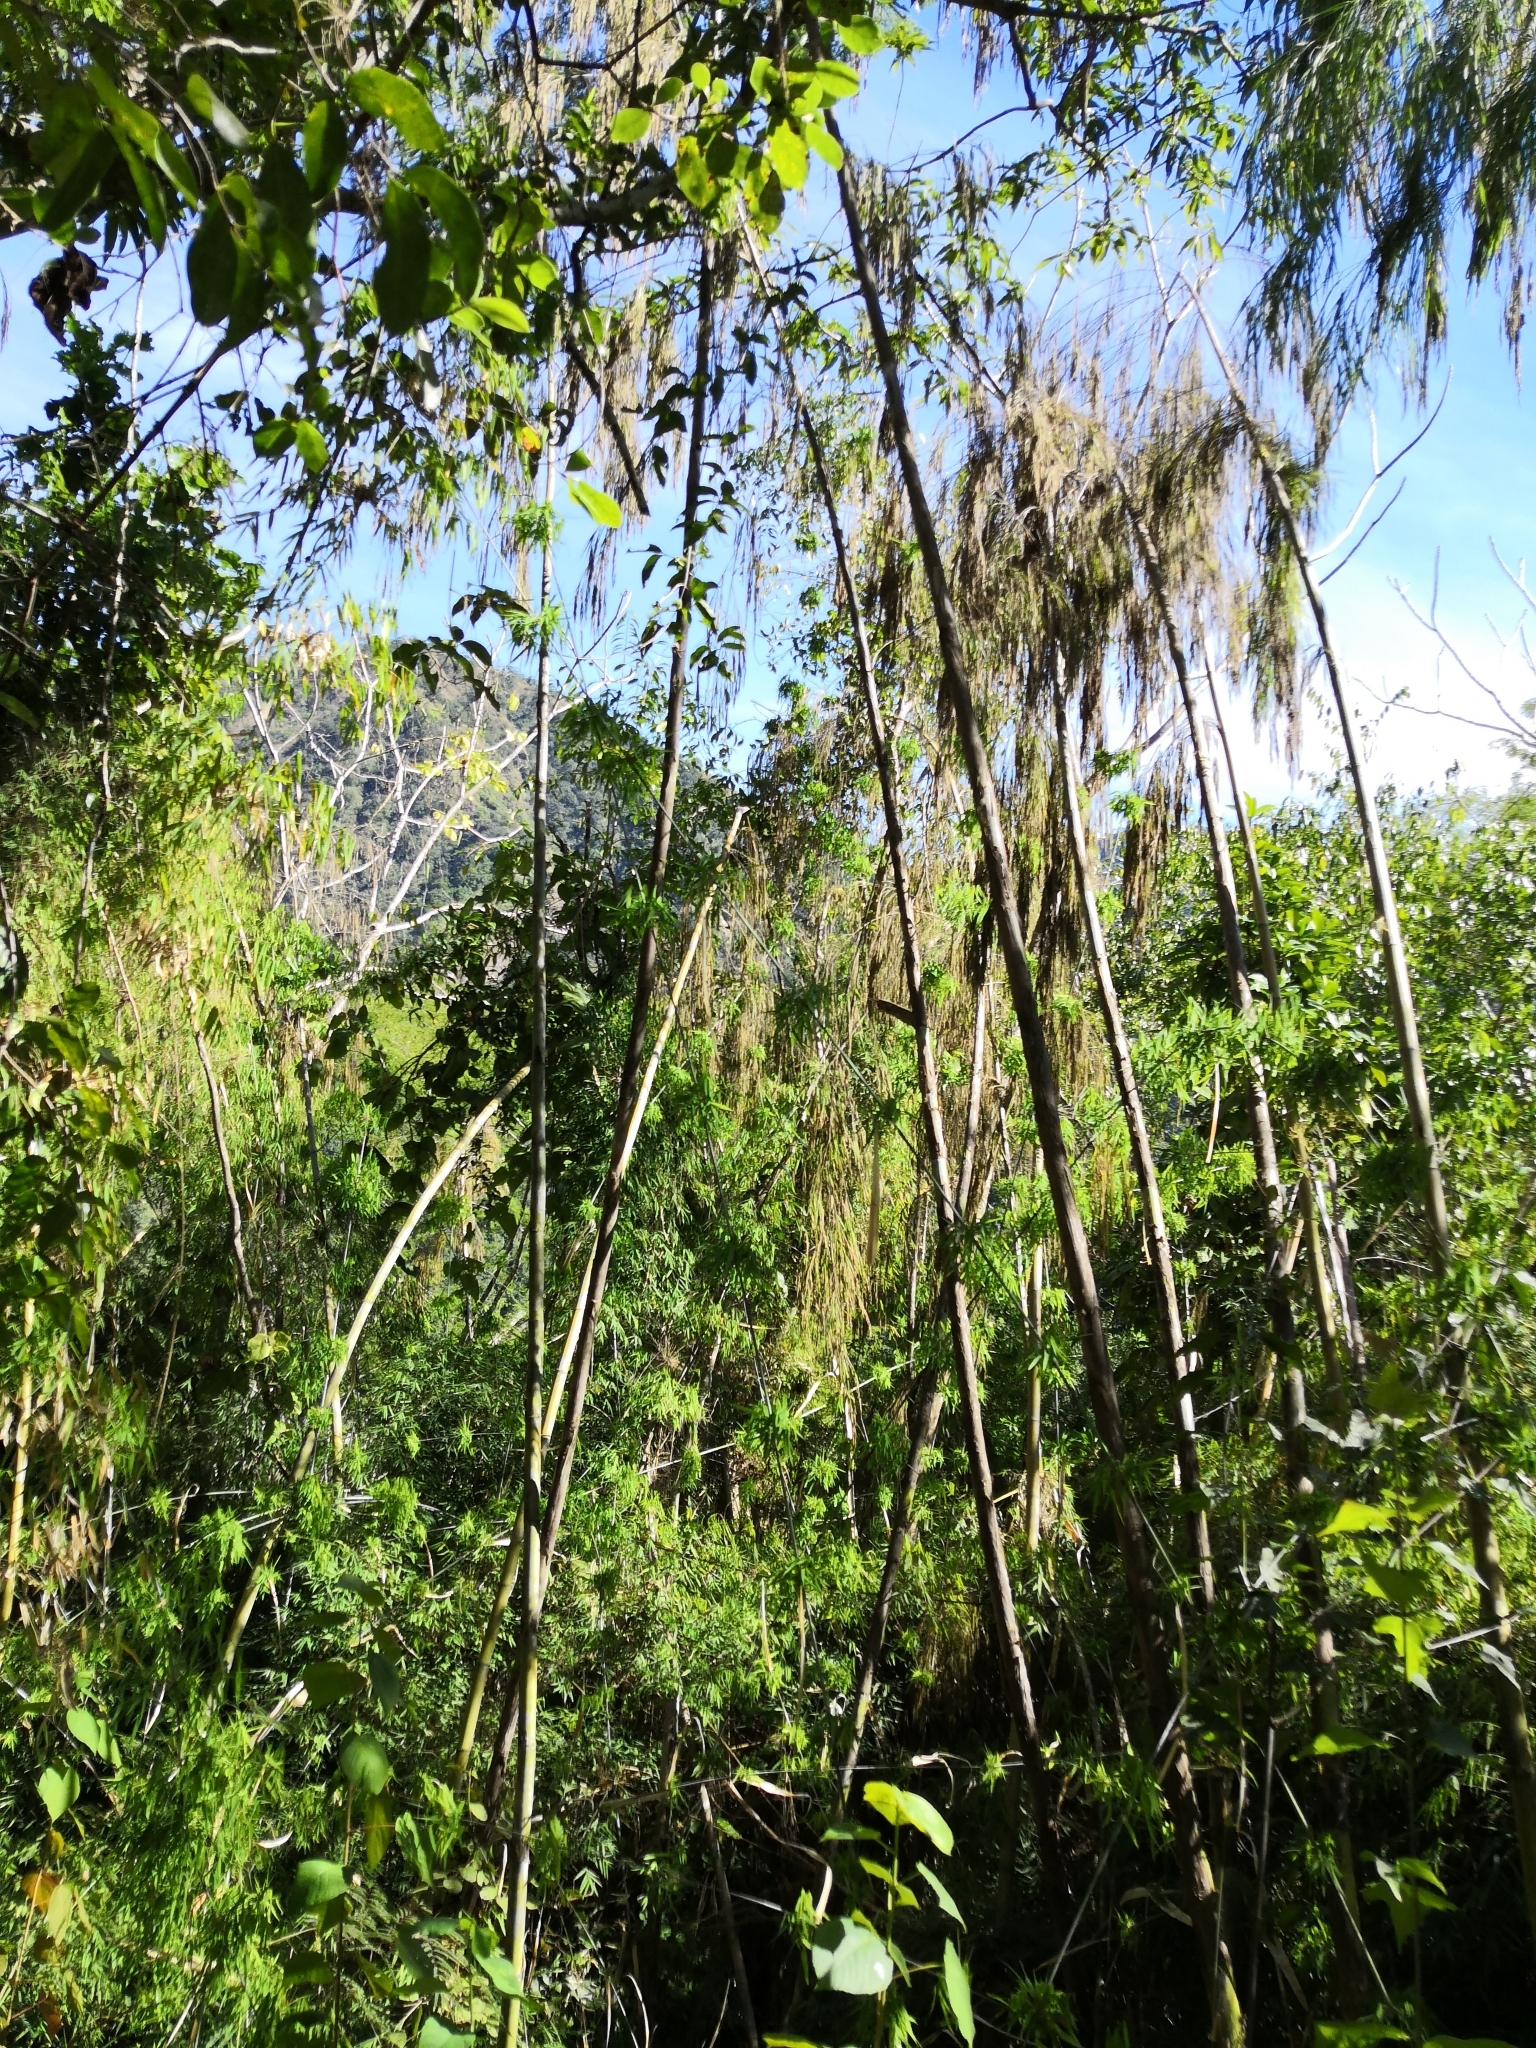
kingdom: Plantae
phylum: Tracheophyta
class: Liliopsida
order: Poales
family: Poaceae
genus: Otatea
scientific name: Otatea acuminata
